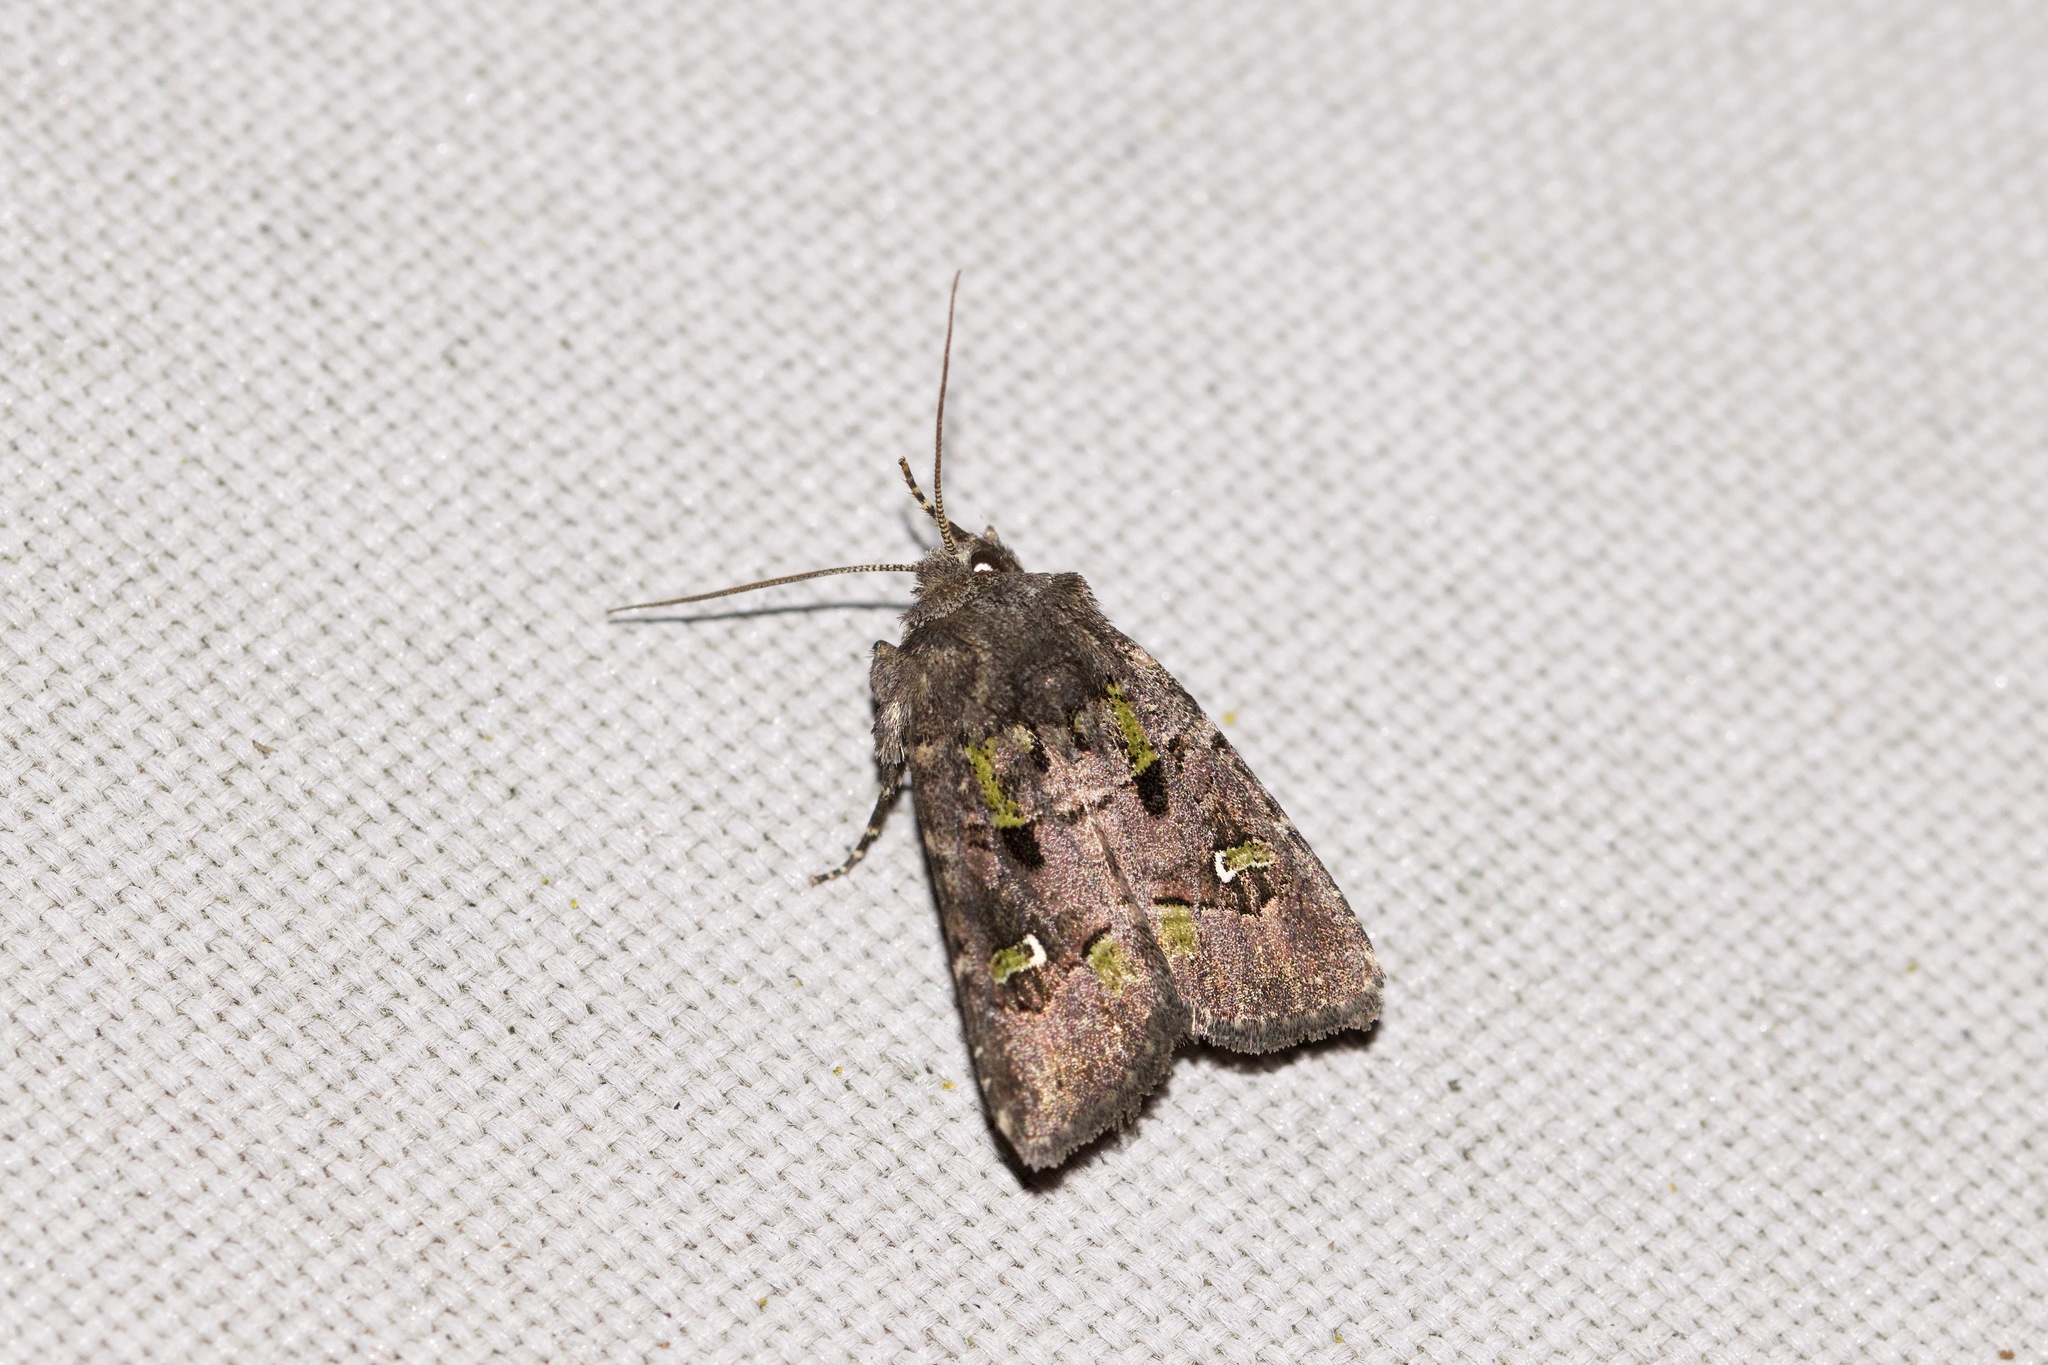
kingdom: Animalia
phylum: Arthropoda
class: Insecta
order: Lepidoptera
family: Noctuidae
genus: Lacinipolia
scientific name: Lacinipolia renigera
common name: Kidney-spotted minor
